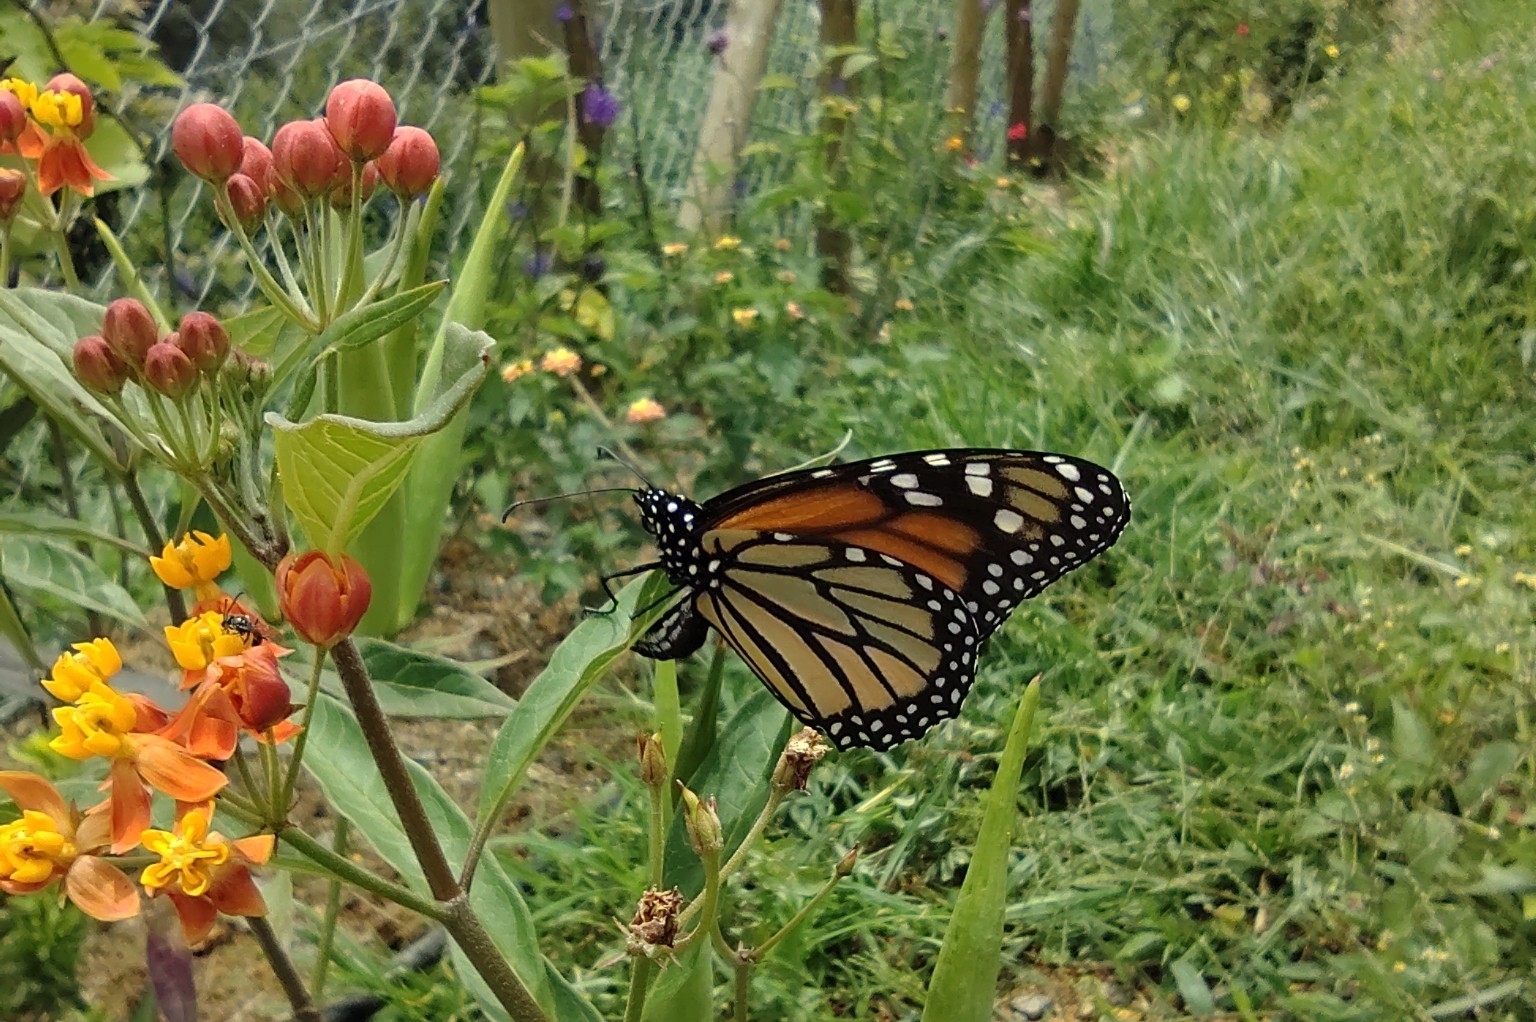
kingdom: Animalia
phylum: Arthropoda
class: Insecta
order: Lepidoptera
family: Nymphalidae
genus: Danaus
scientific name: Danaus plexippus
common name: Monarch
